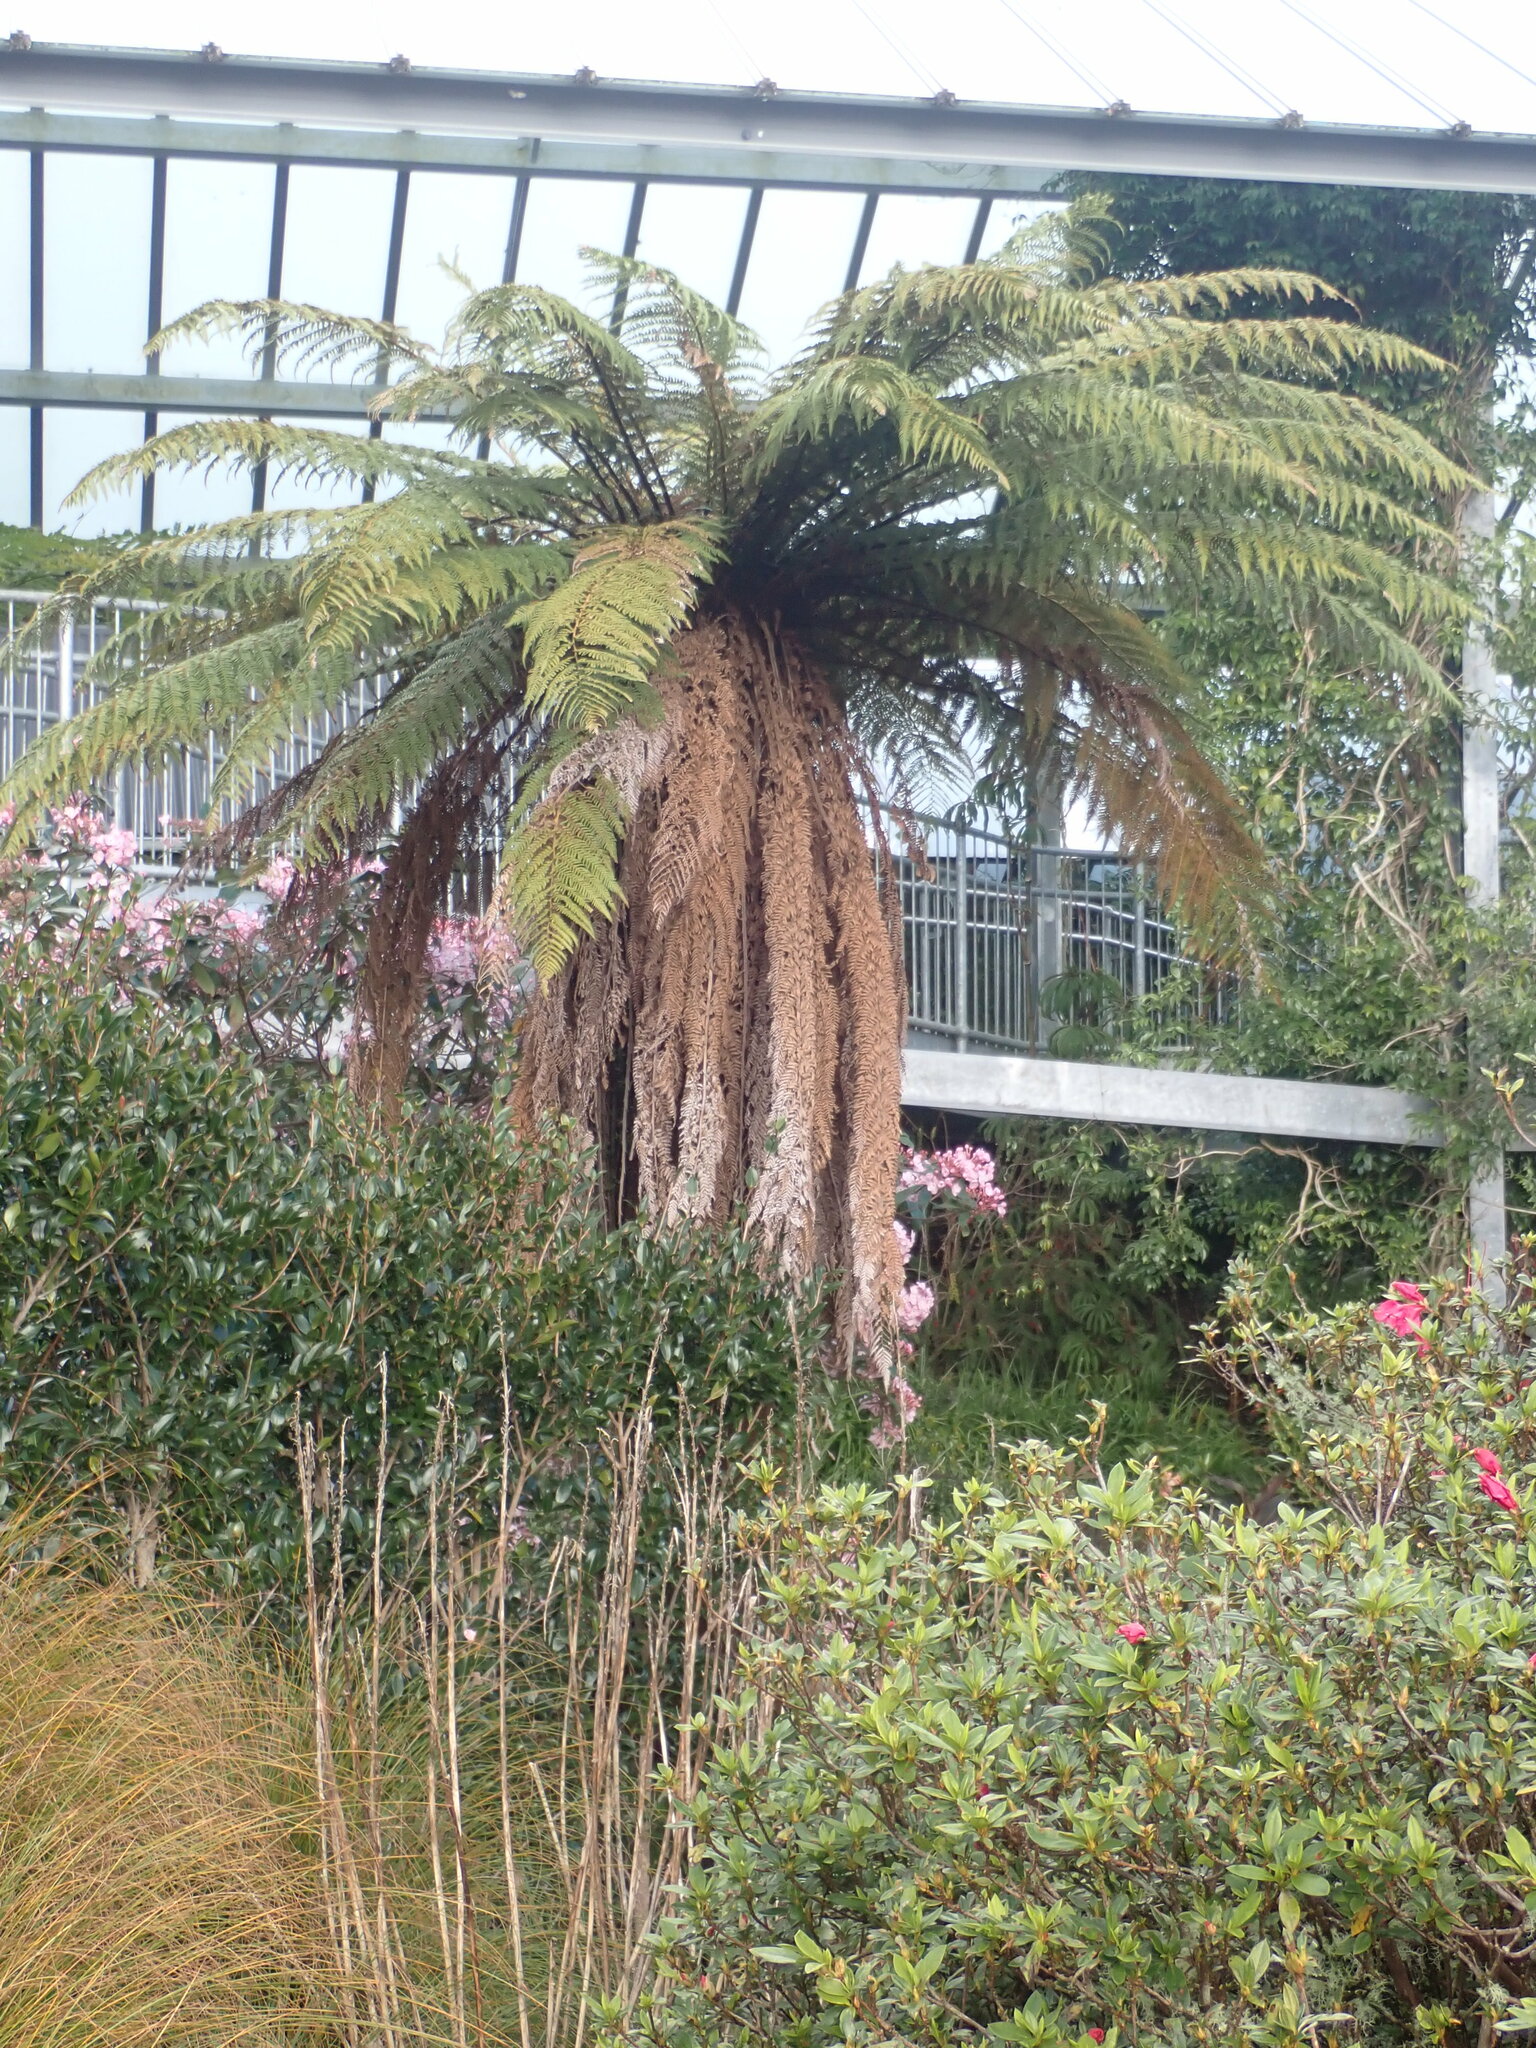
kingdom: Plantae
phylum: Tracheophyta
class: Polypodiopsida
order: Cyatheales
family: Dicksoniaceae
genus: Dicksonia
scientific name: Dicksonia fibrosa
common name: Golden tree fern
